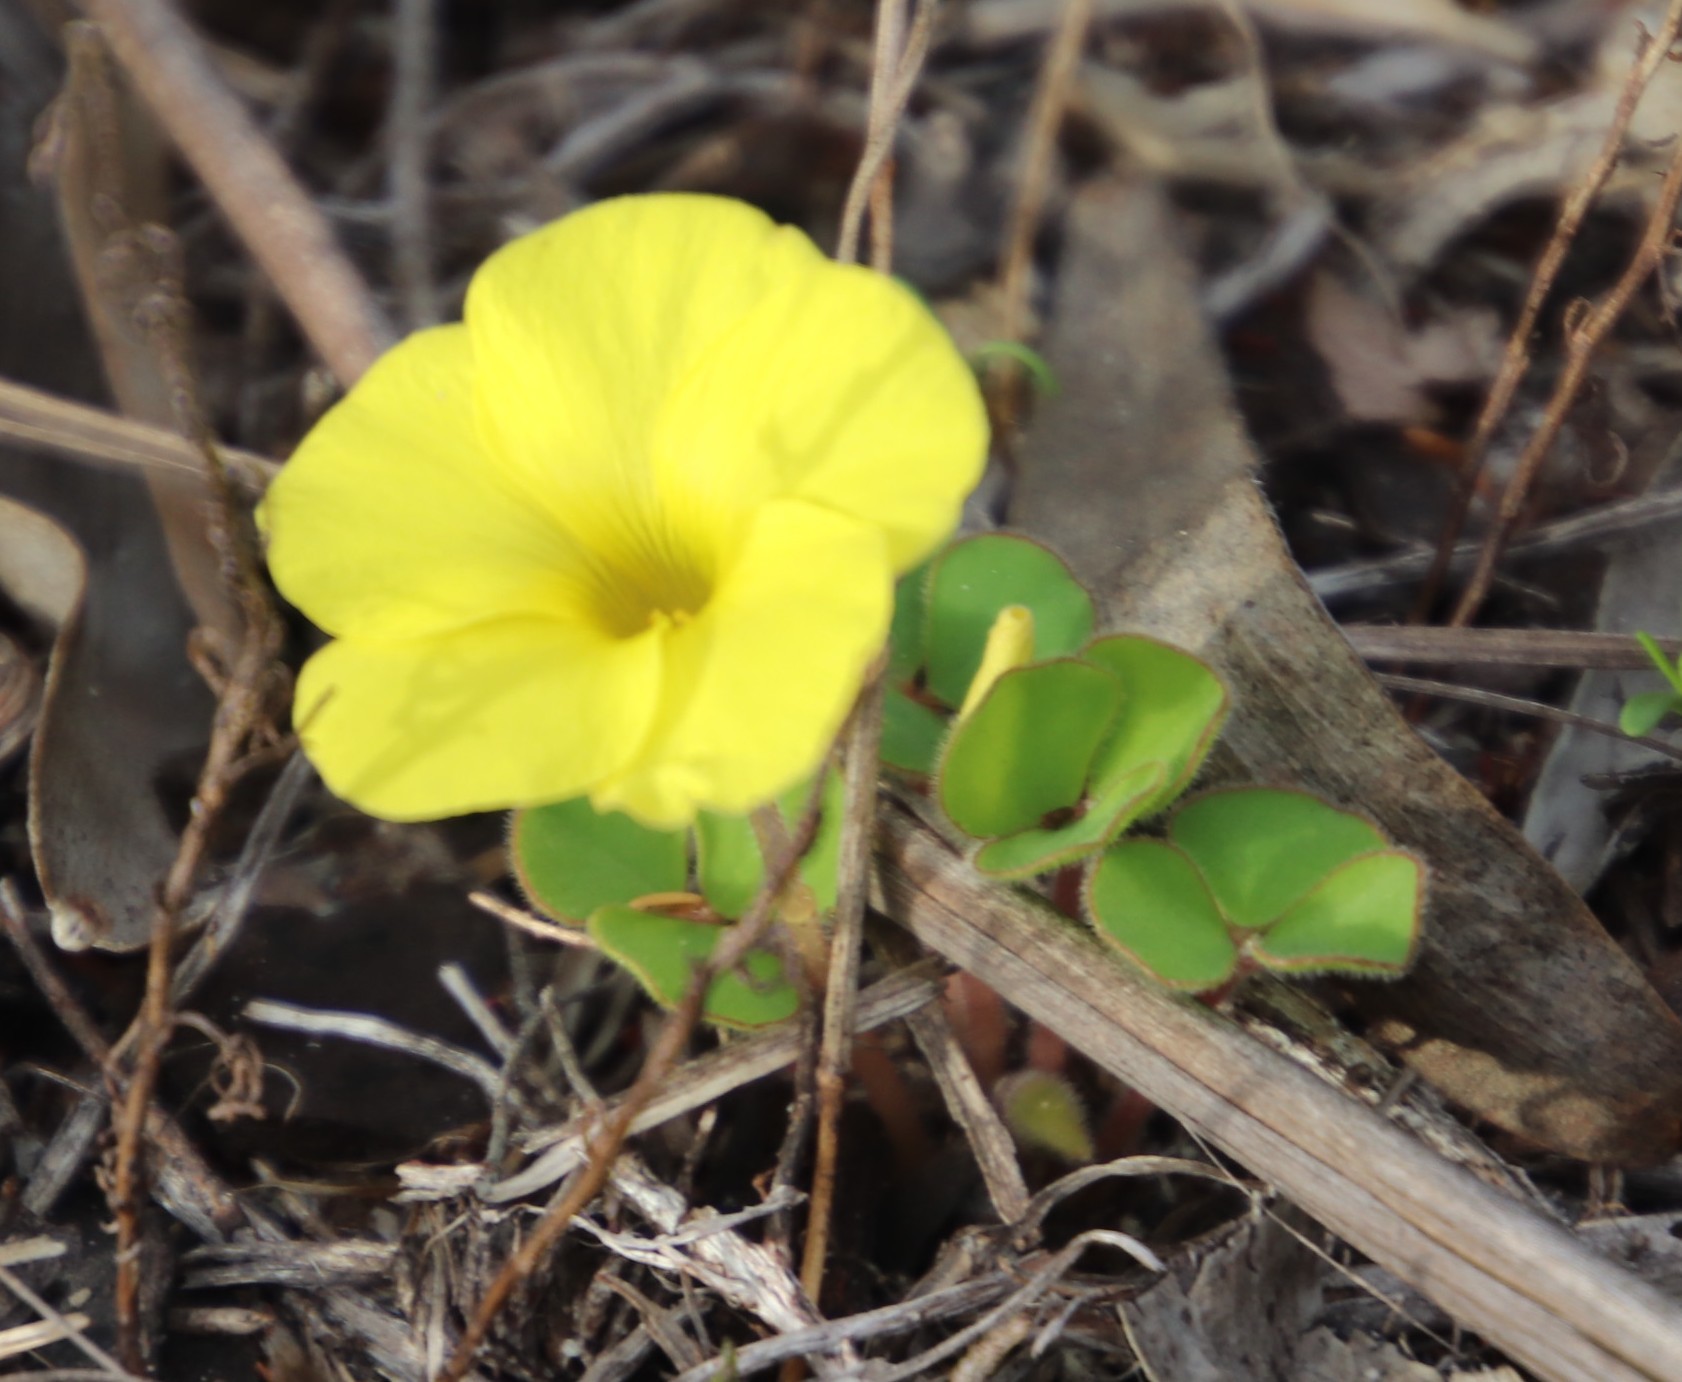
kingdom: Plantae
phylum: Tracheophyta
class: Magnoliopsida
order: Oxalidales
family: Oxalidaceae
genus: Oxalis
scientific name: Oxalis luteola
